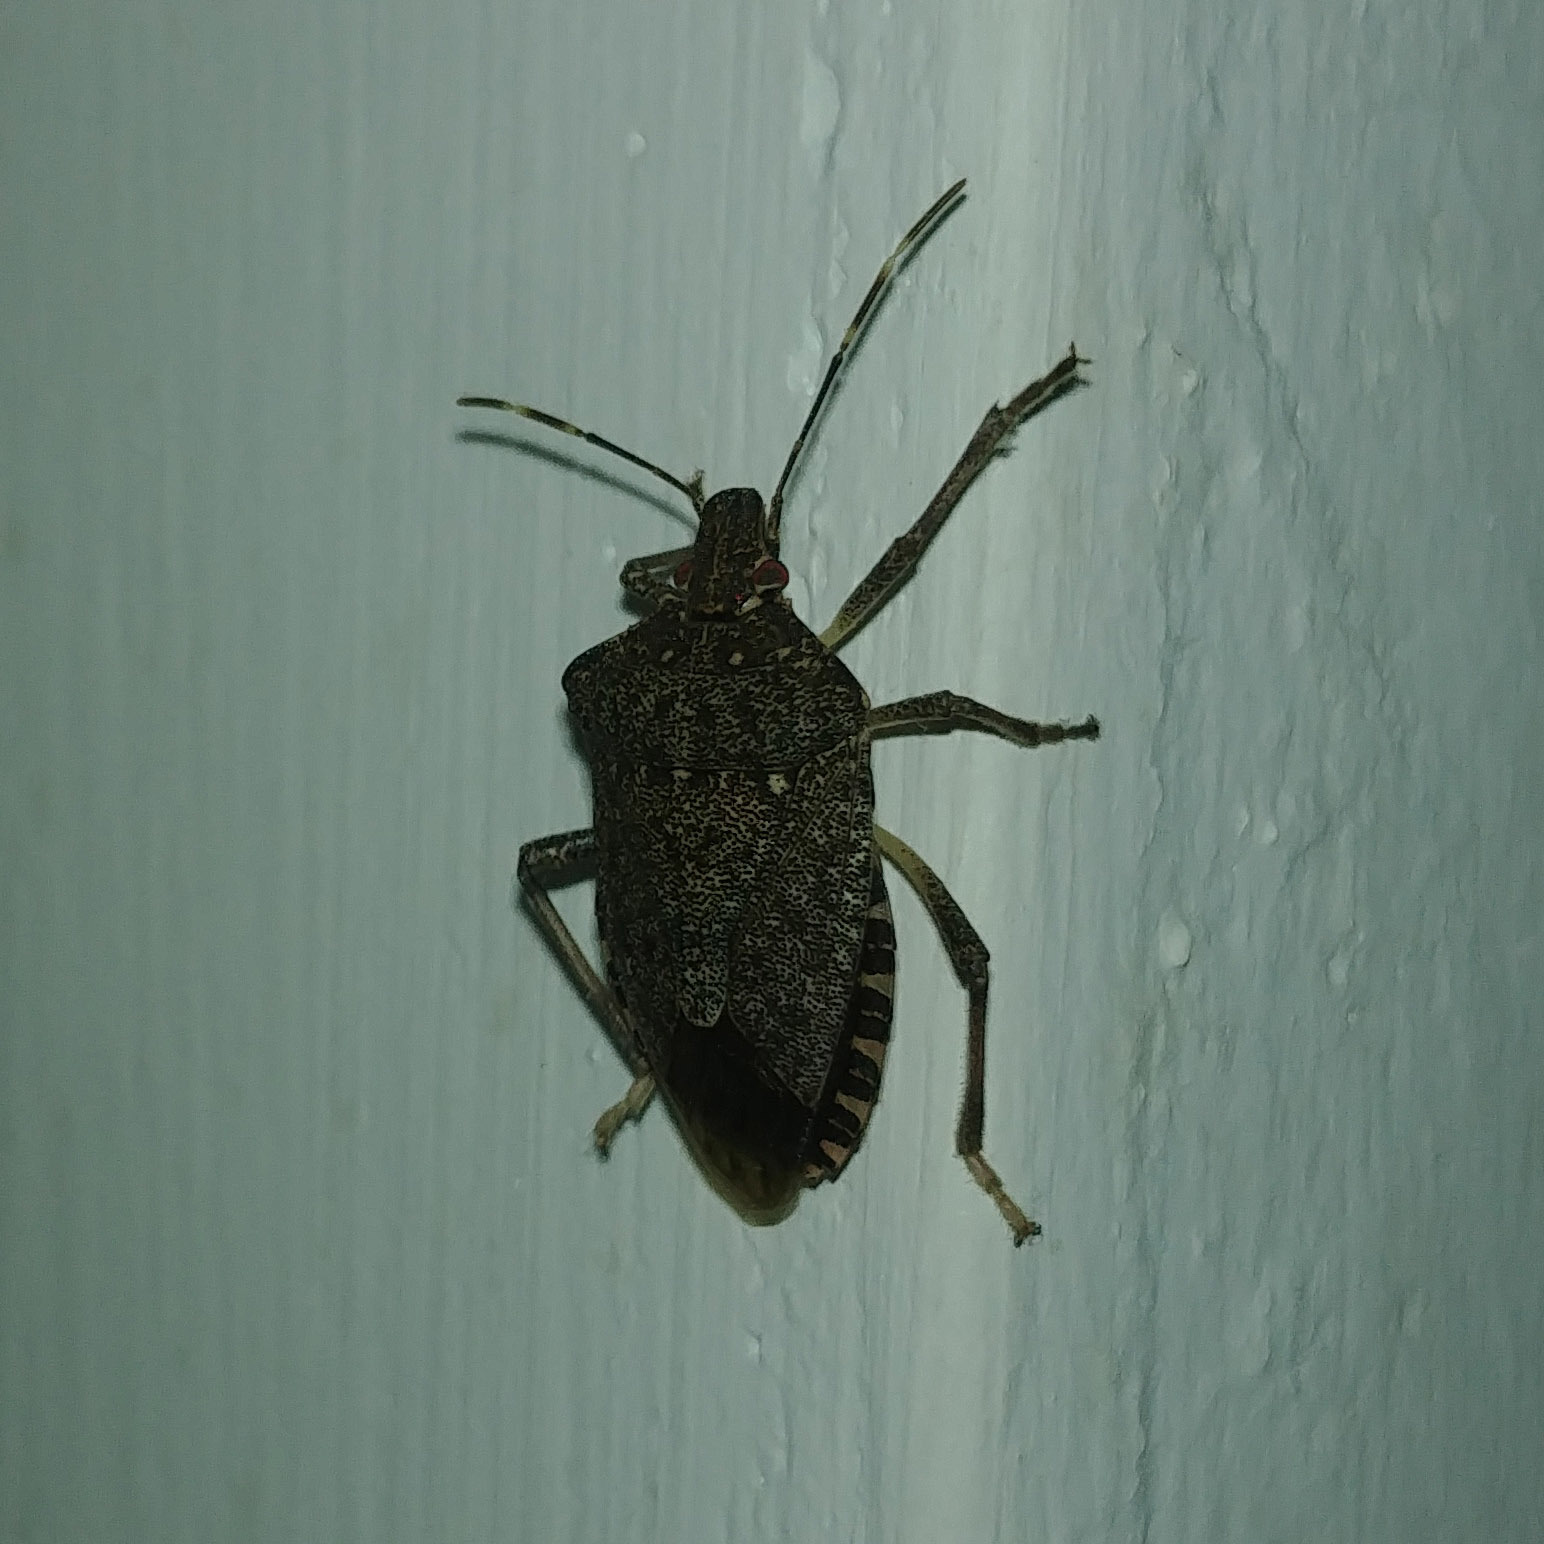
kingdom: Animalia
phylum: Arthropoda
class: Insecta
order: Hemiptera
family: Pentatomidae
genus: Halyomorpha
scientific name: Halyomorpha halys
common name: Brown marmorated stink bug
